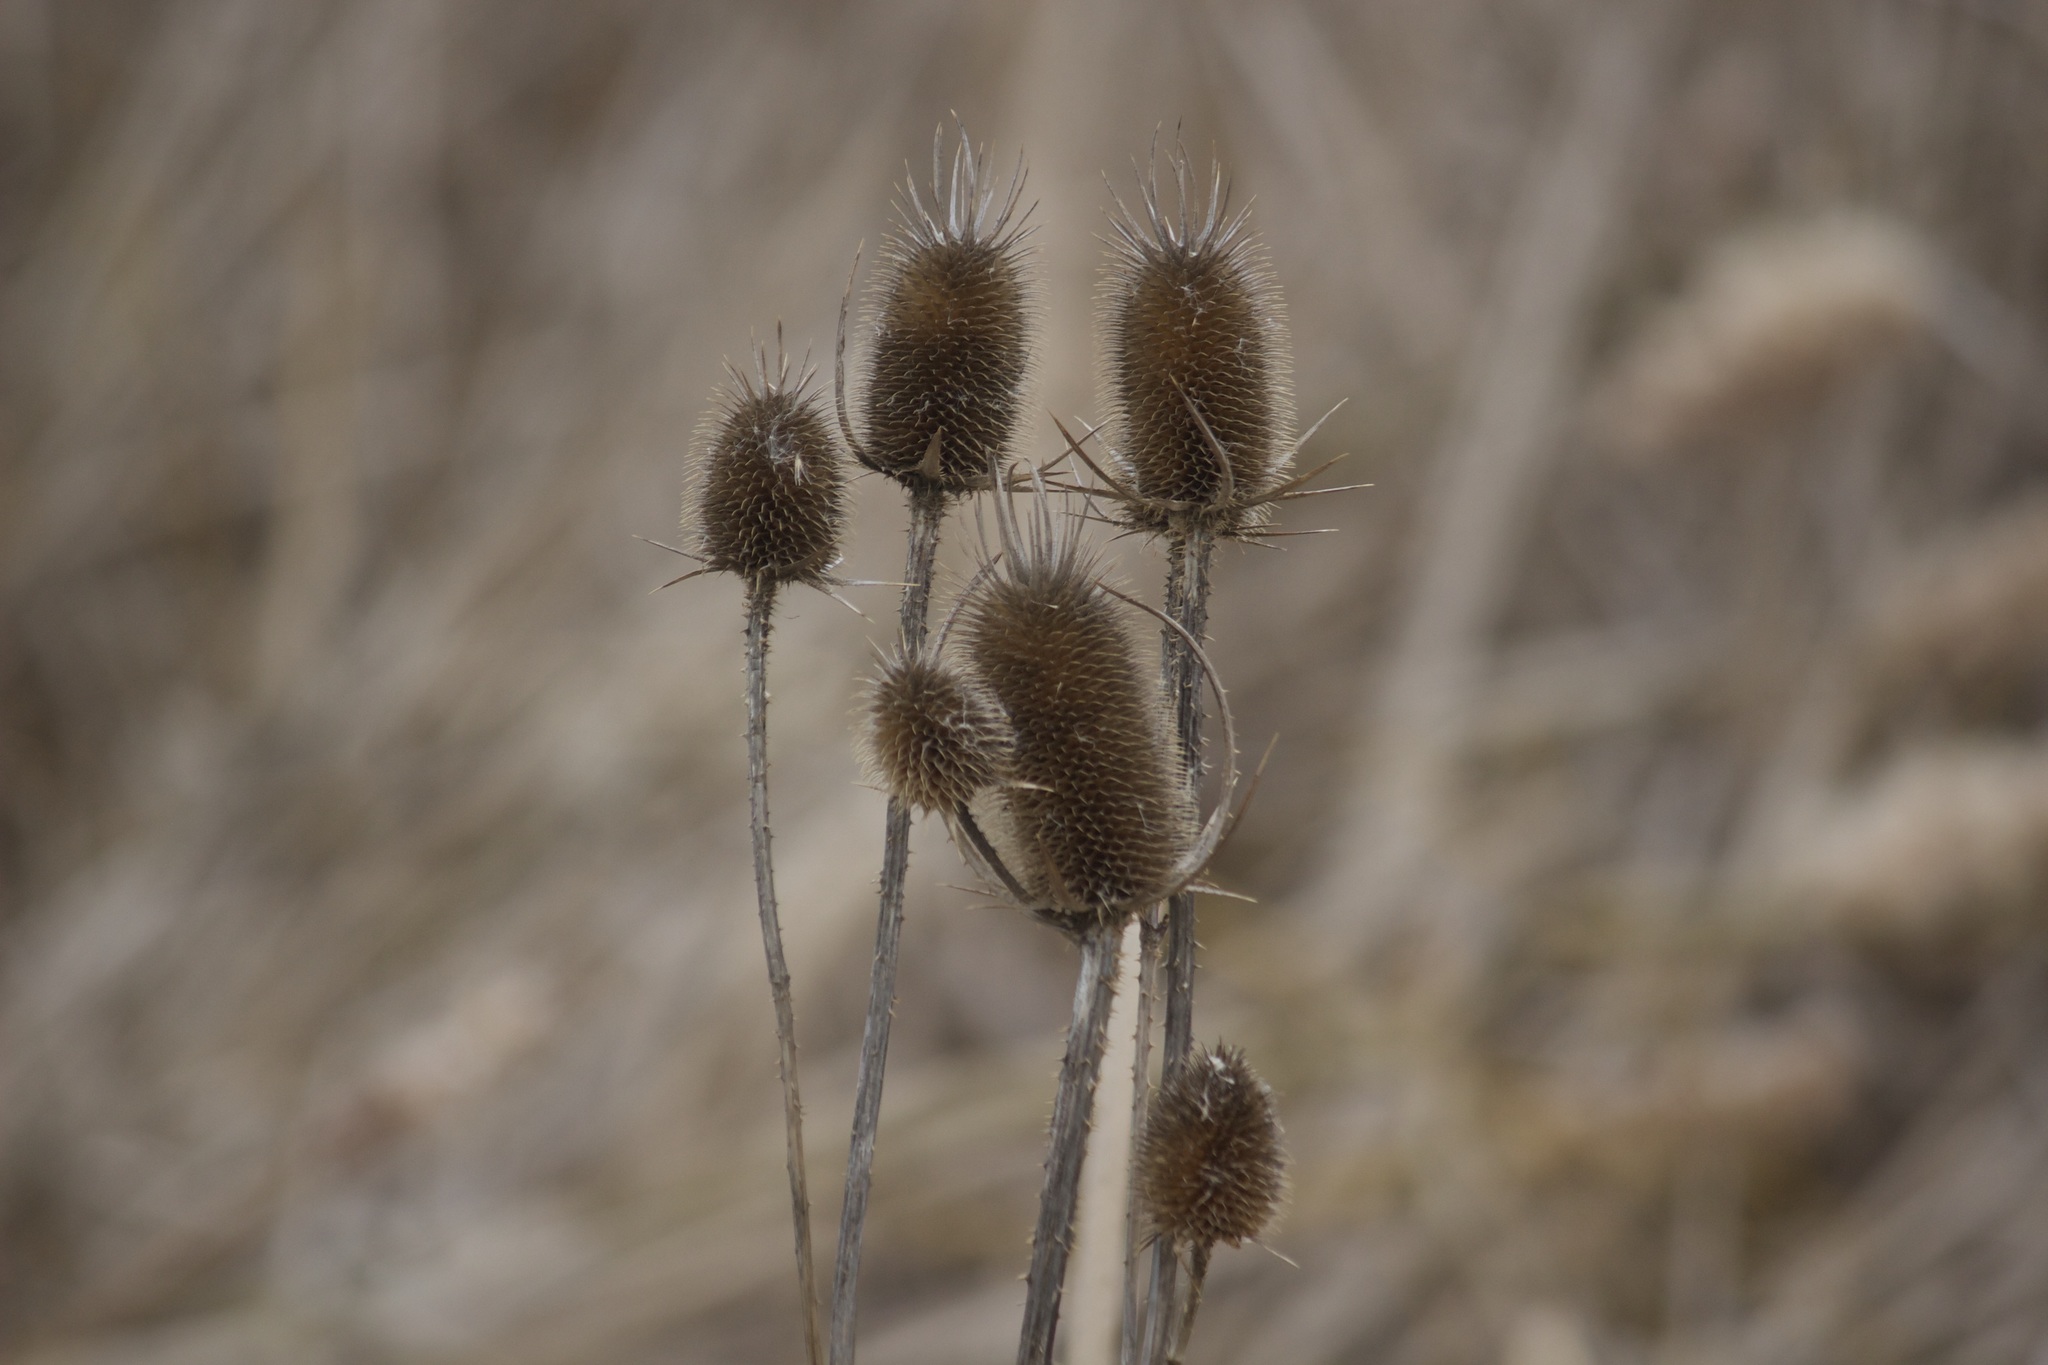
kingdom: Plantae
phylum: Tracheophyta
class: Magnoliopsida
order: Dipsacales
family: Caprifoliaceae
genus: Dipsacus
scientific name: Dipsacus laciniatus
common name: Cut-leaved teasel
